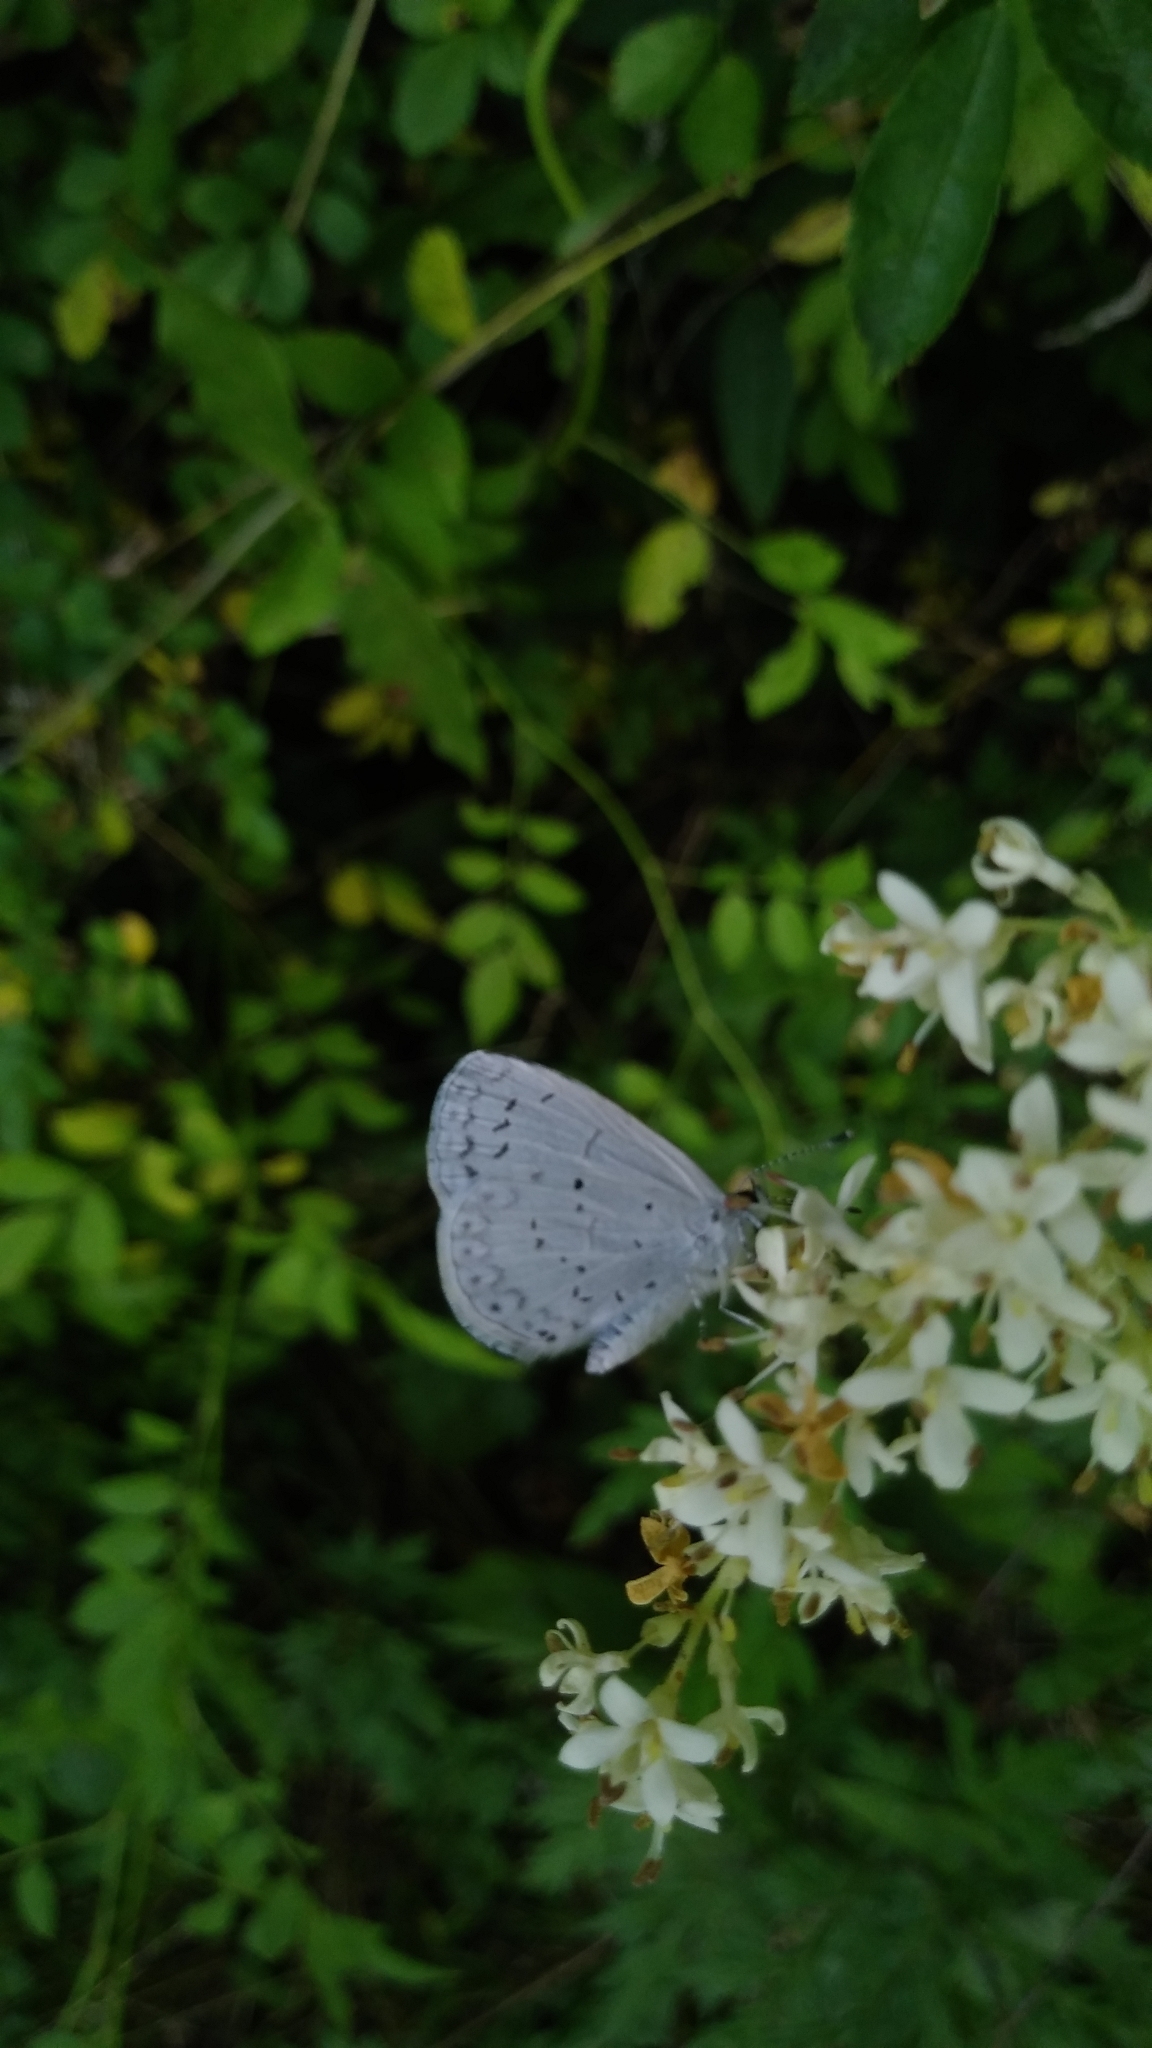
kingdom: Animalia
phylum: Arthropoda
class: Insecta
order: Lepidoptera
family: Lycaenidae
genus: Cyaniris
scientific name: Cyaniris neglecta
